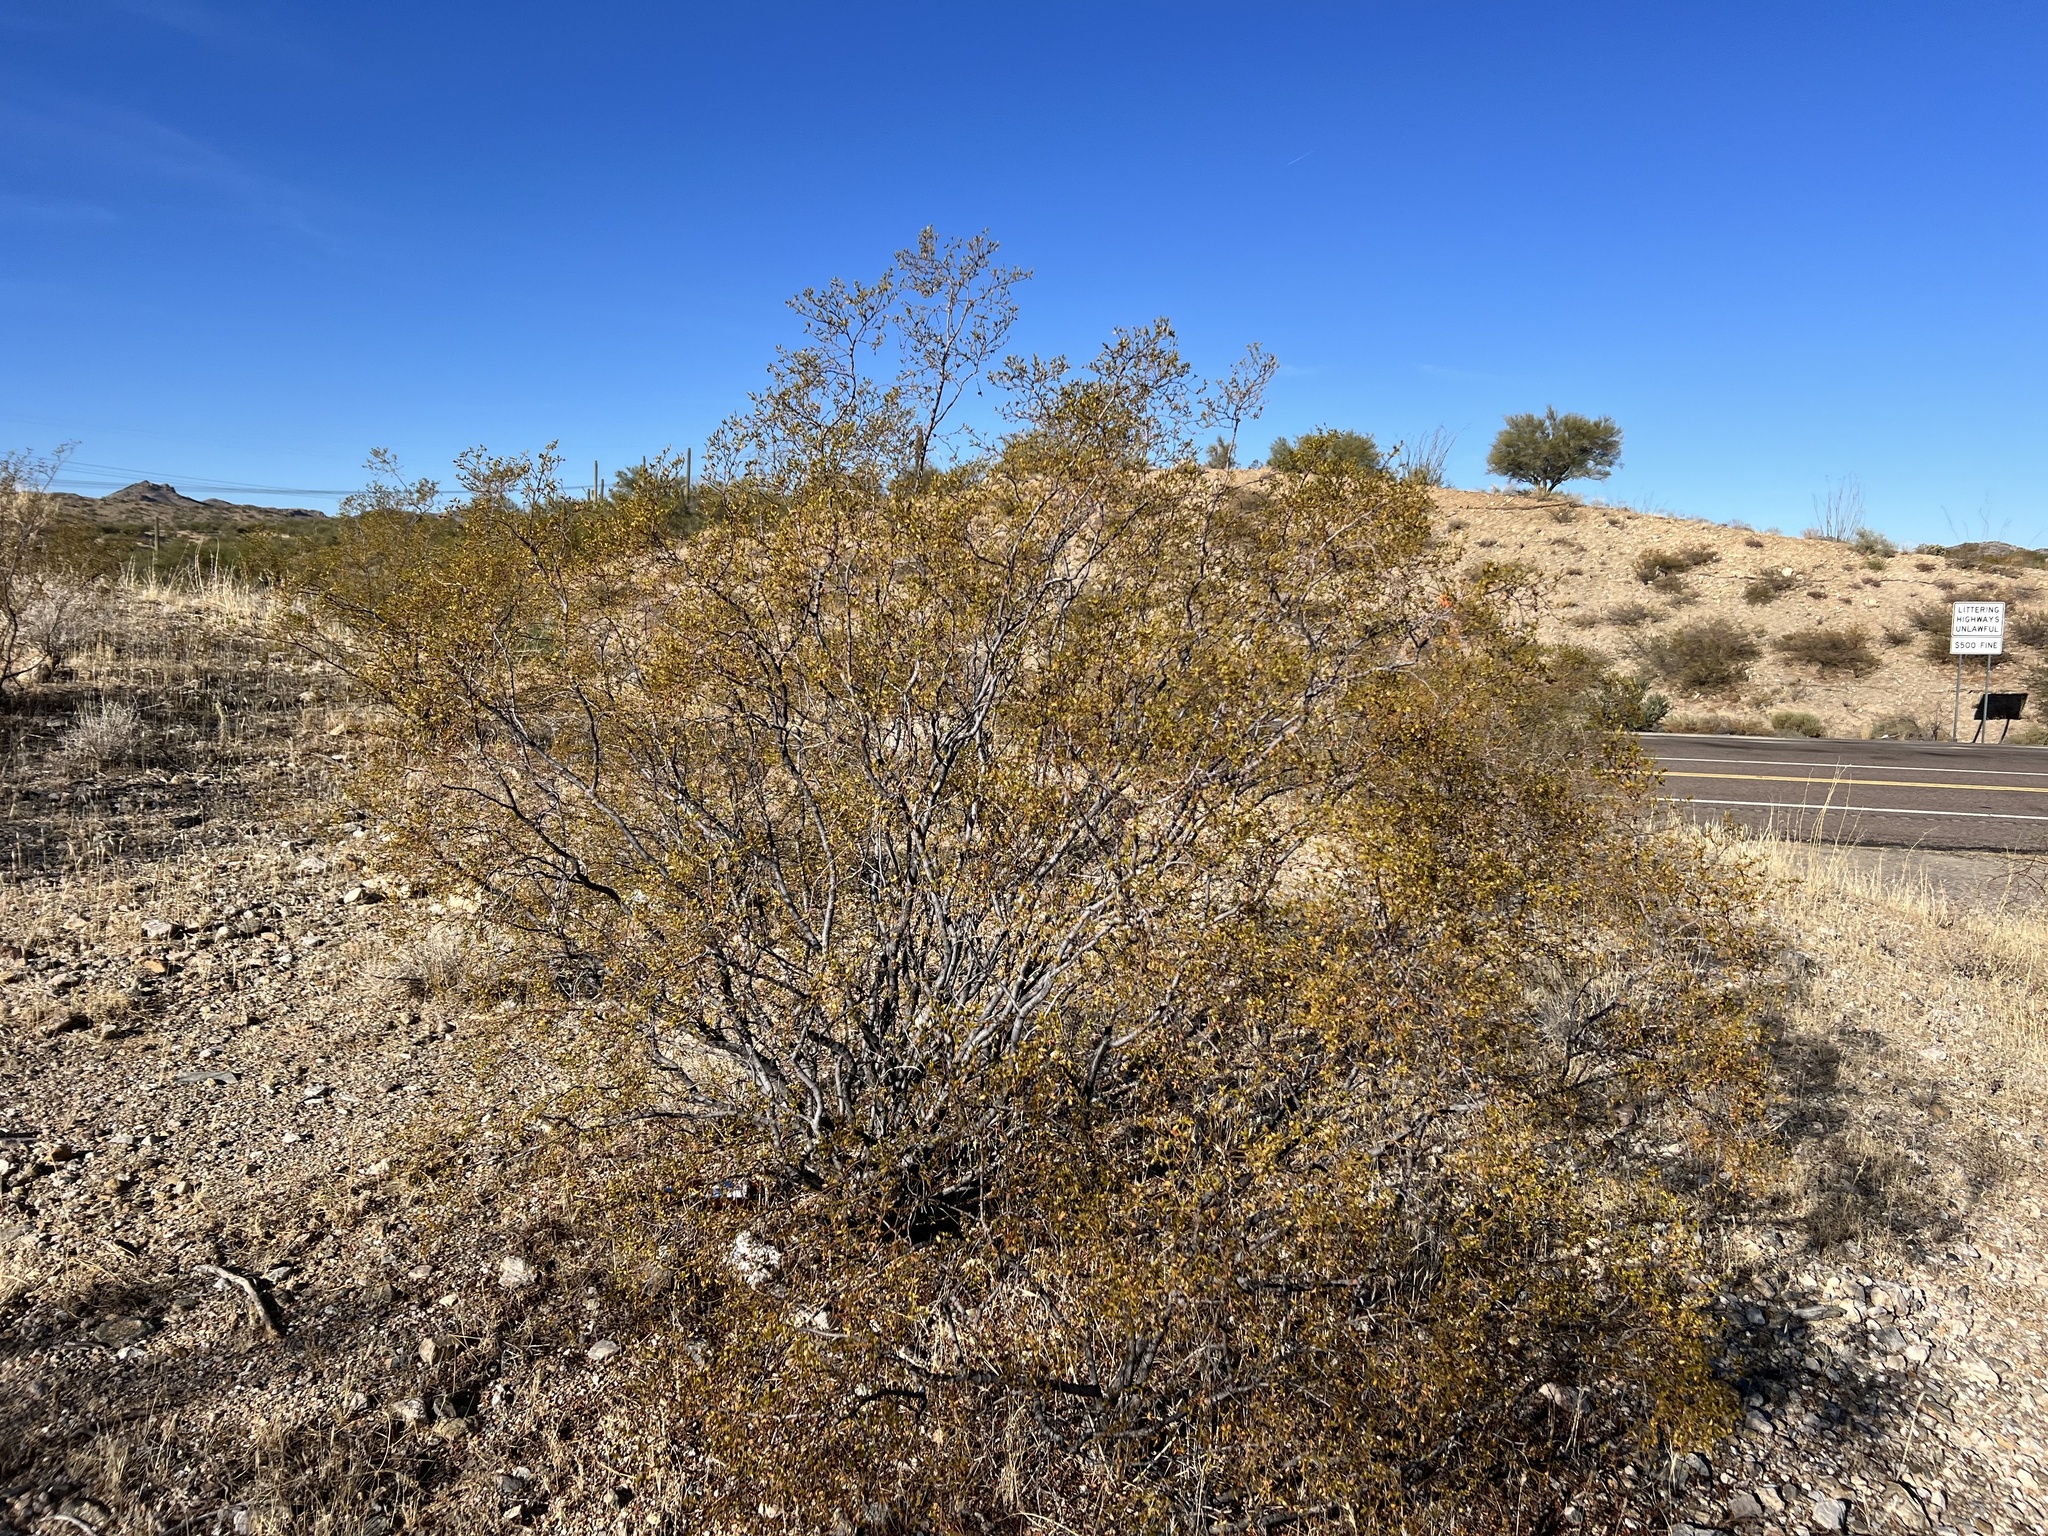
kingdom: Plantae
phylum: Tracheophyta
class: Magnoliopsida
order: Zygophyllales
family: Zygophyllaceae
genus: Larrea
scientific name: Larrea tridentata
